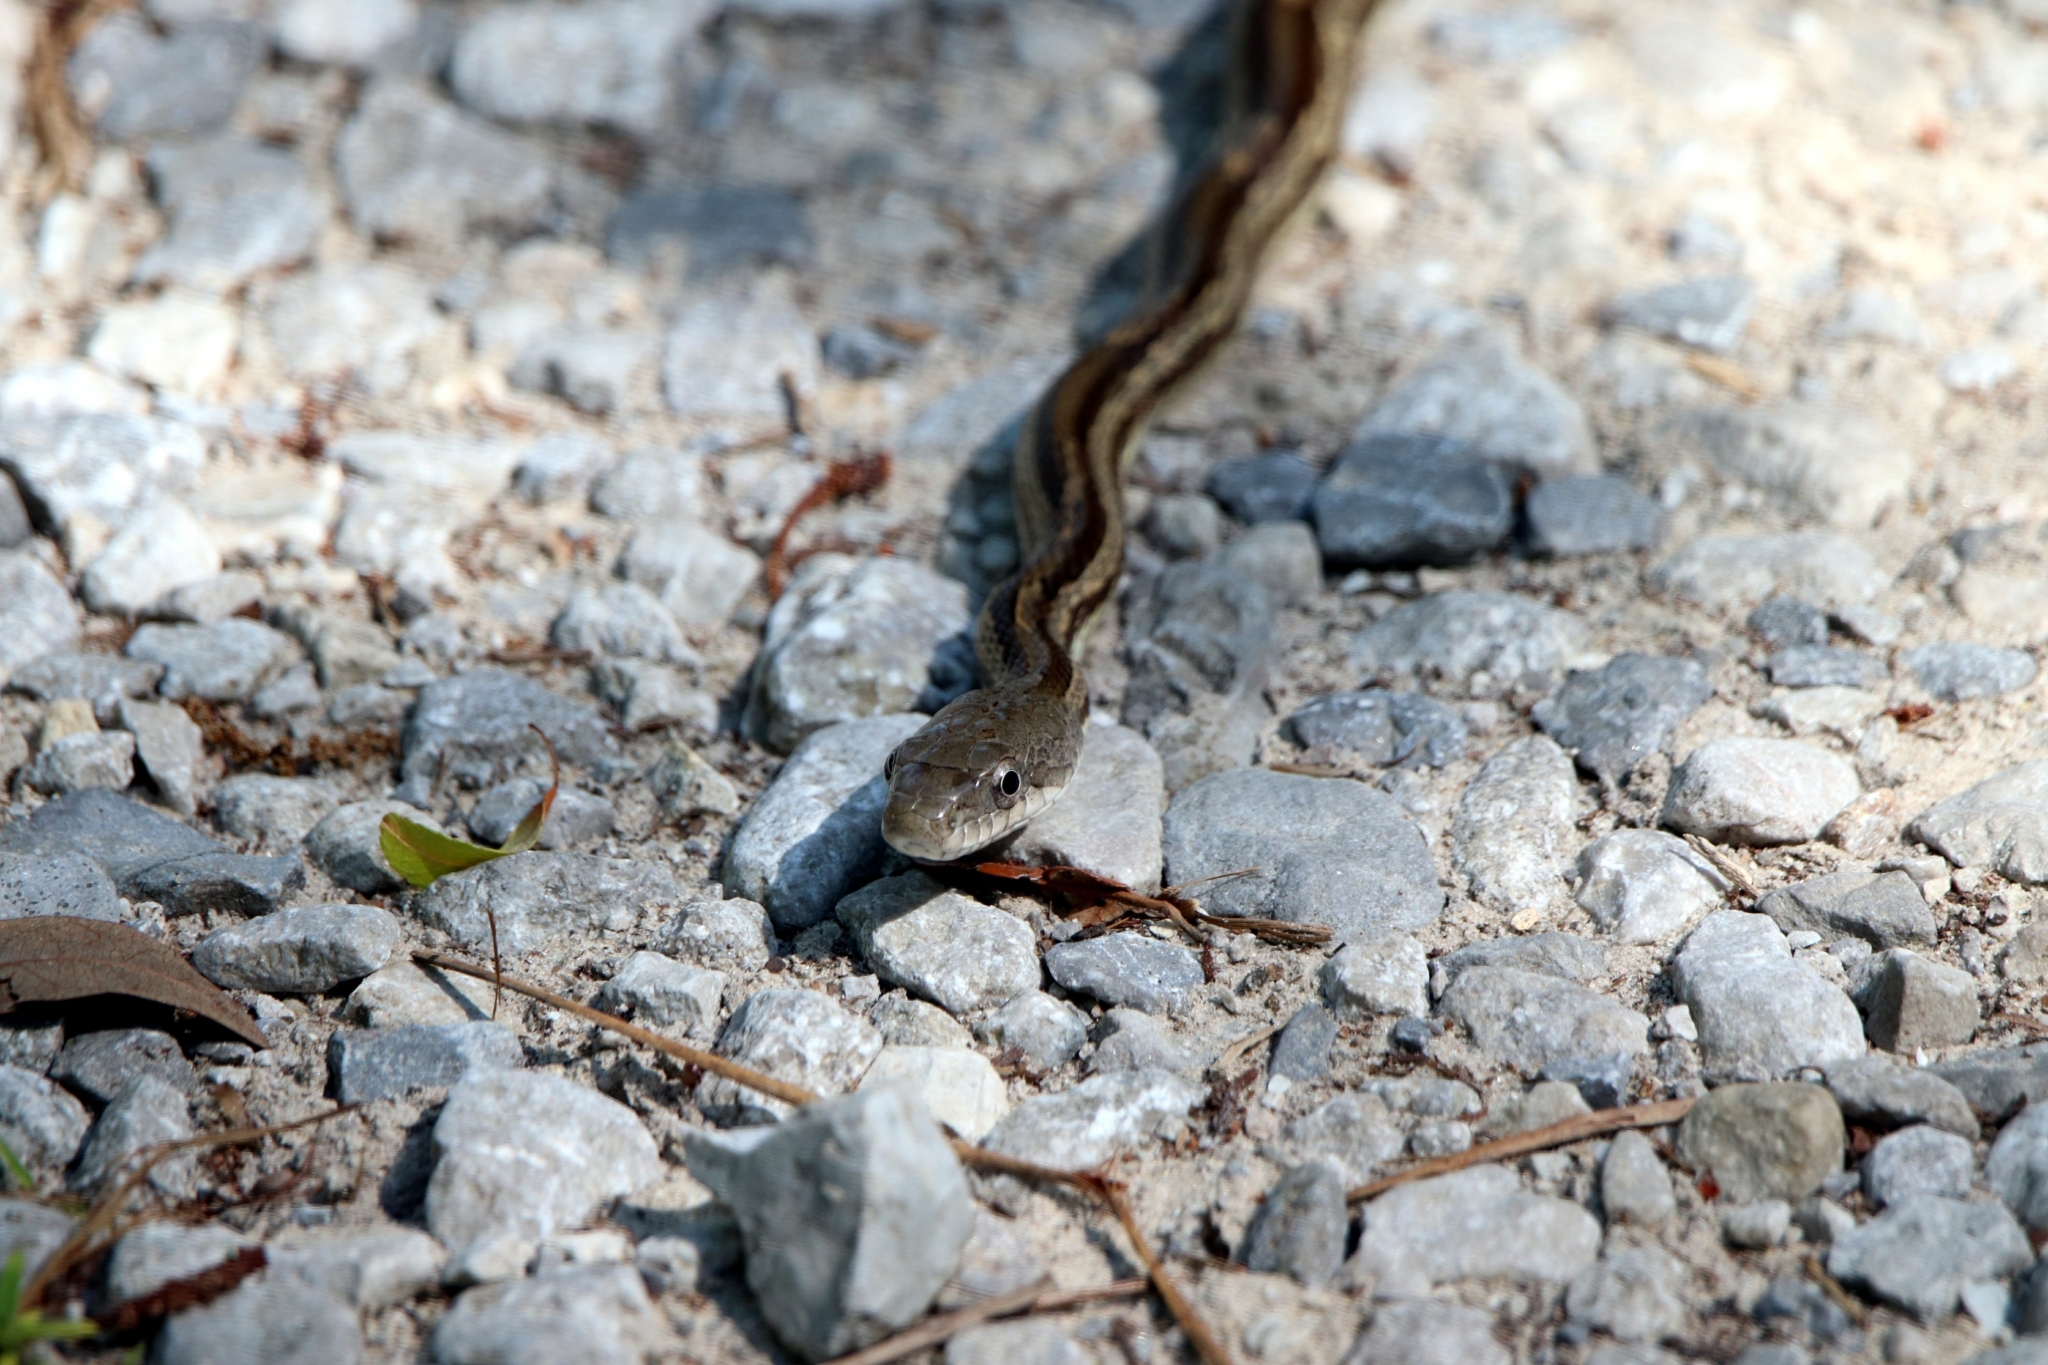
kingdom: Animalia
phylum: Chordata
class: Squamata
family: Colubridae
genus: Pantherophis
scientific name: Pantherophis spiloides
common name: Gray rat snake
